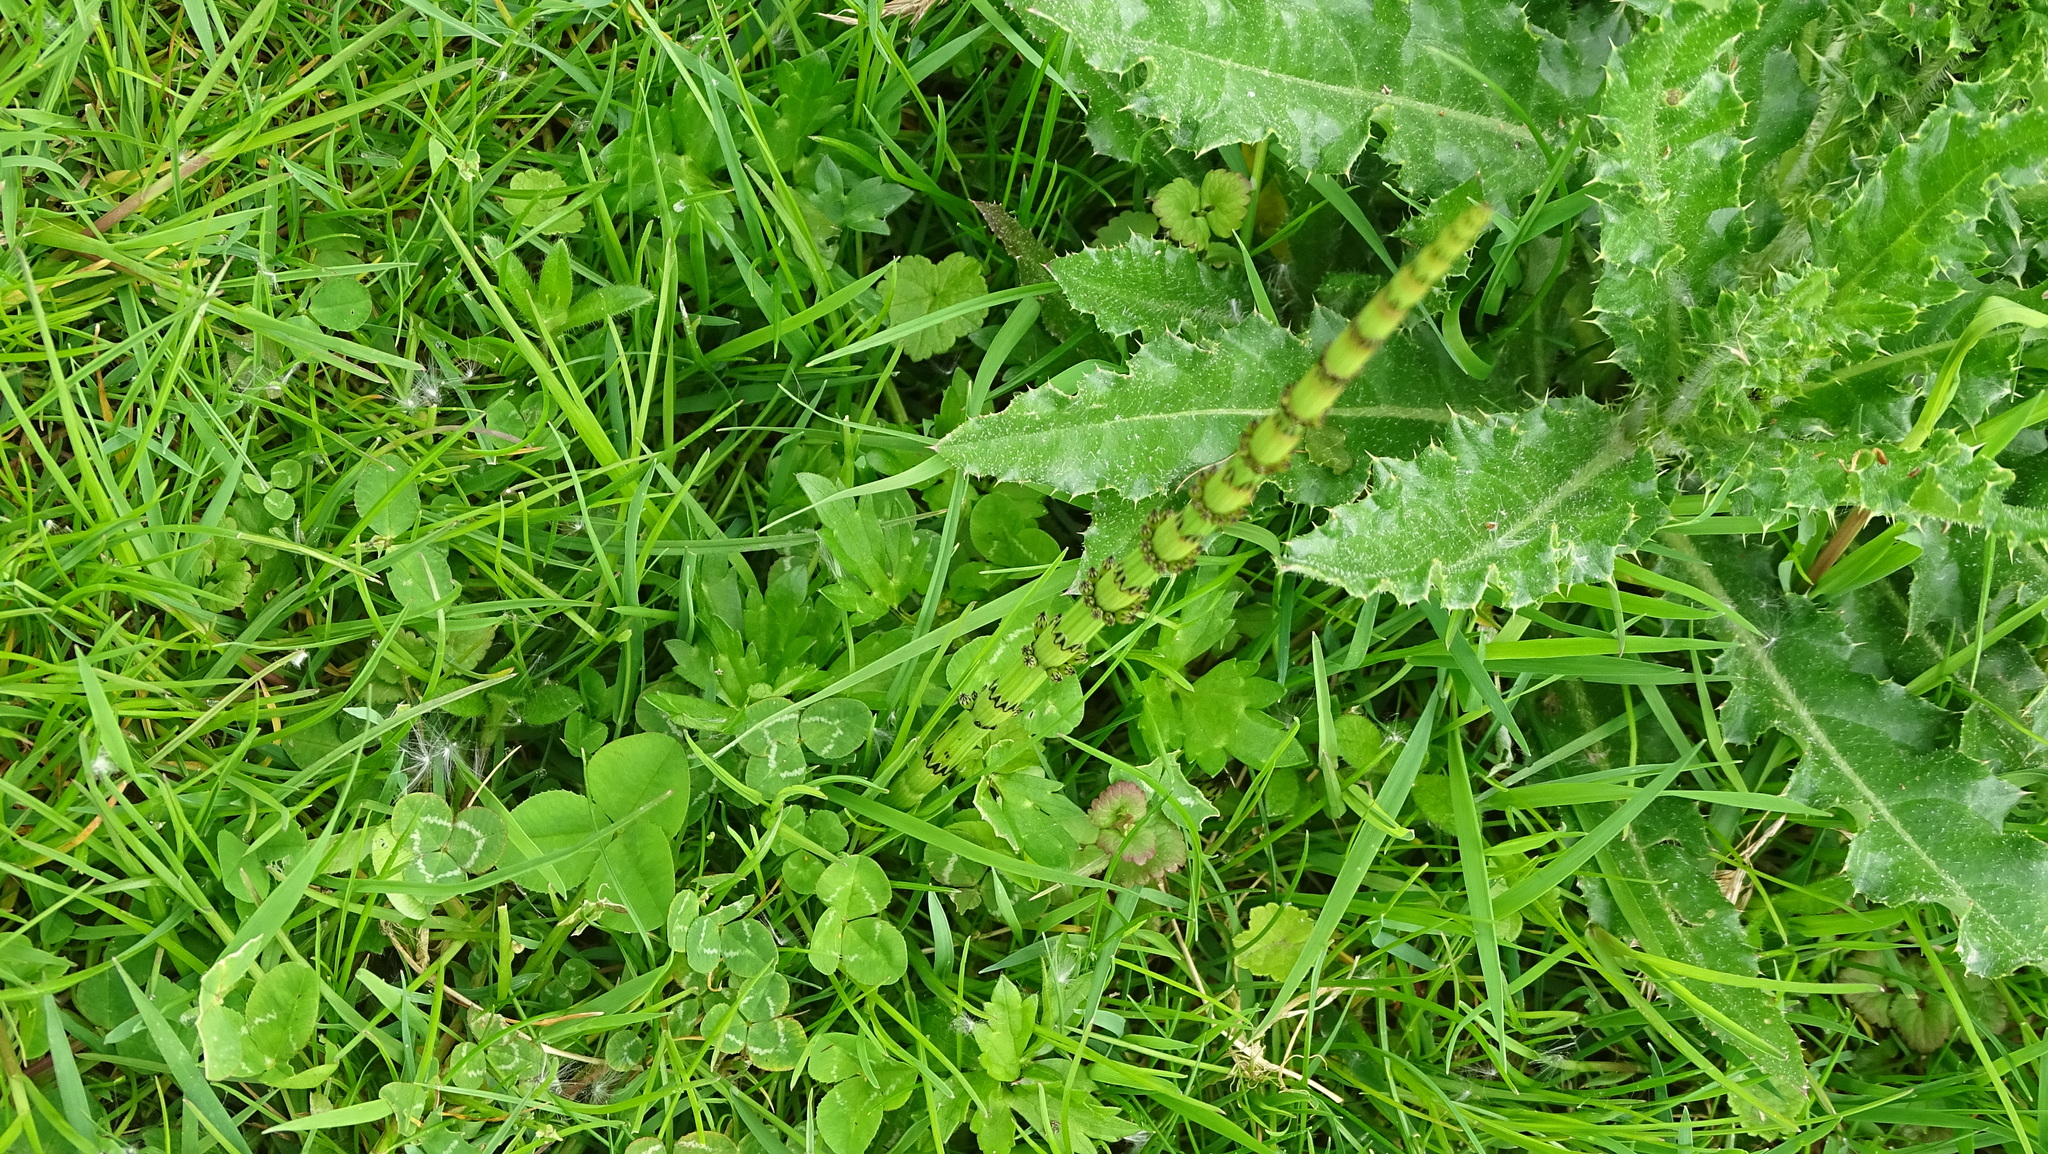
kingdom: Plantae
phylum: Tracheophyta
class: Polypodiopsida
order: Equisetales
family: Equisetaceae
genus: Equisetum
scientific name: Equisetum palustre
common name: Marsh horsetail
